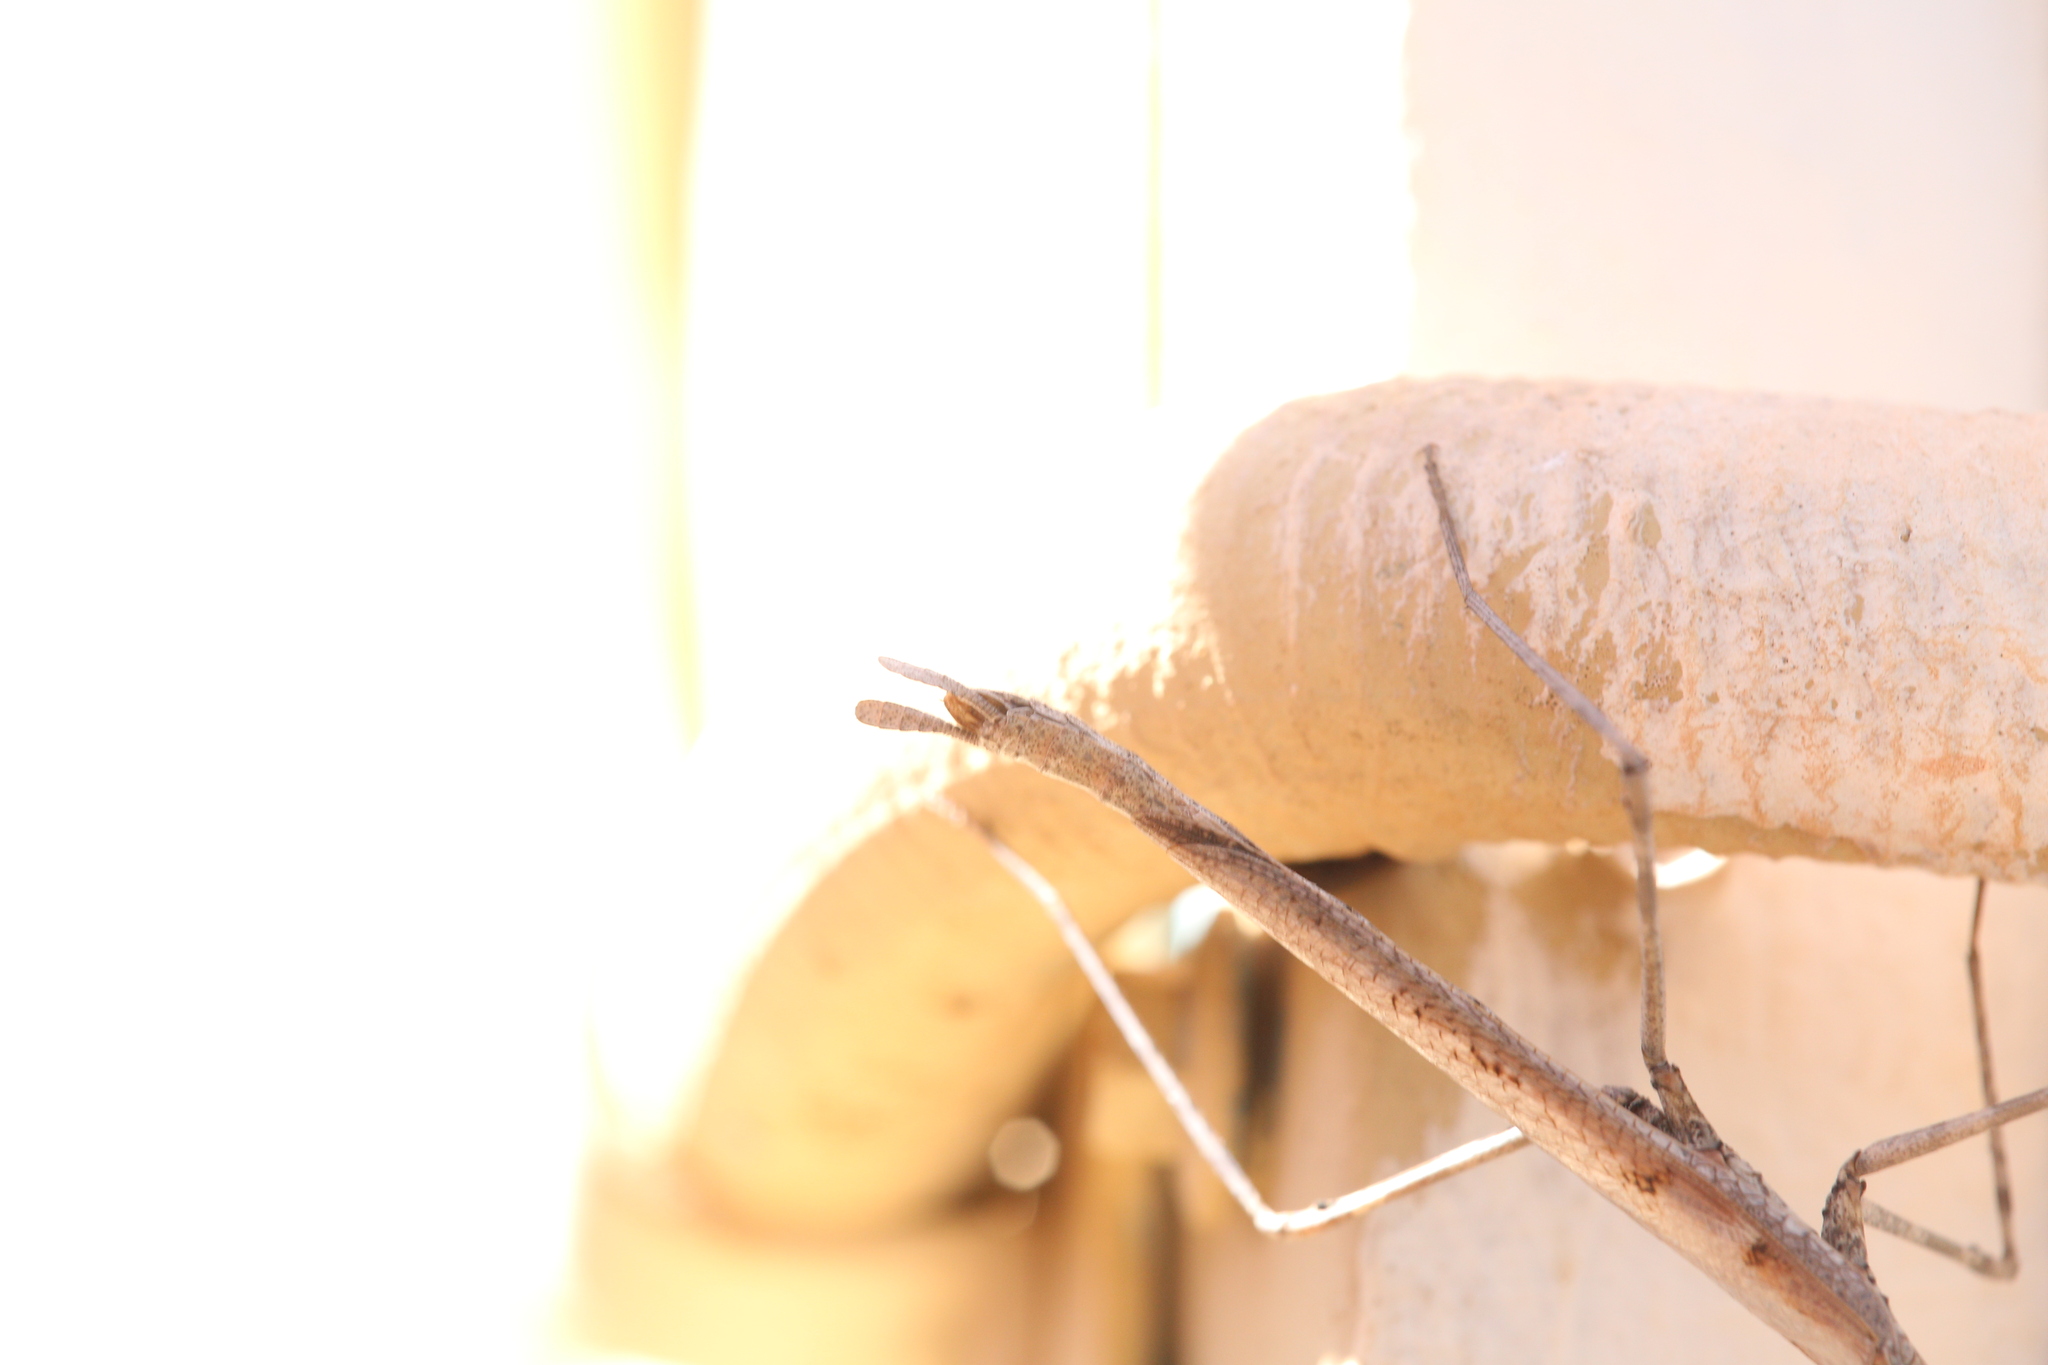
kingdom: Animalia
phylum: Arthropoda
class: Insecta
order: Mantodea
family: Mantidae
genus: Austrovates
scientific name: Austrovates variegata
